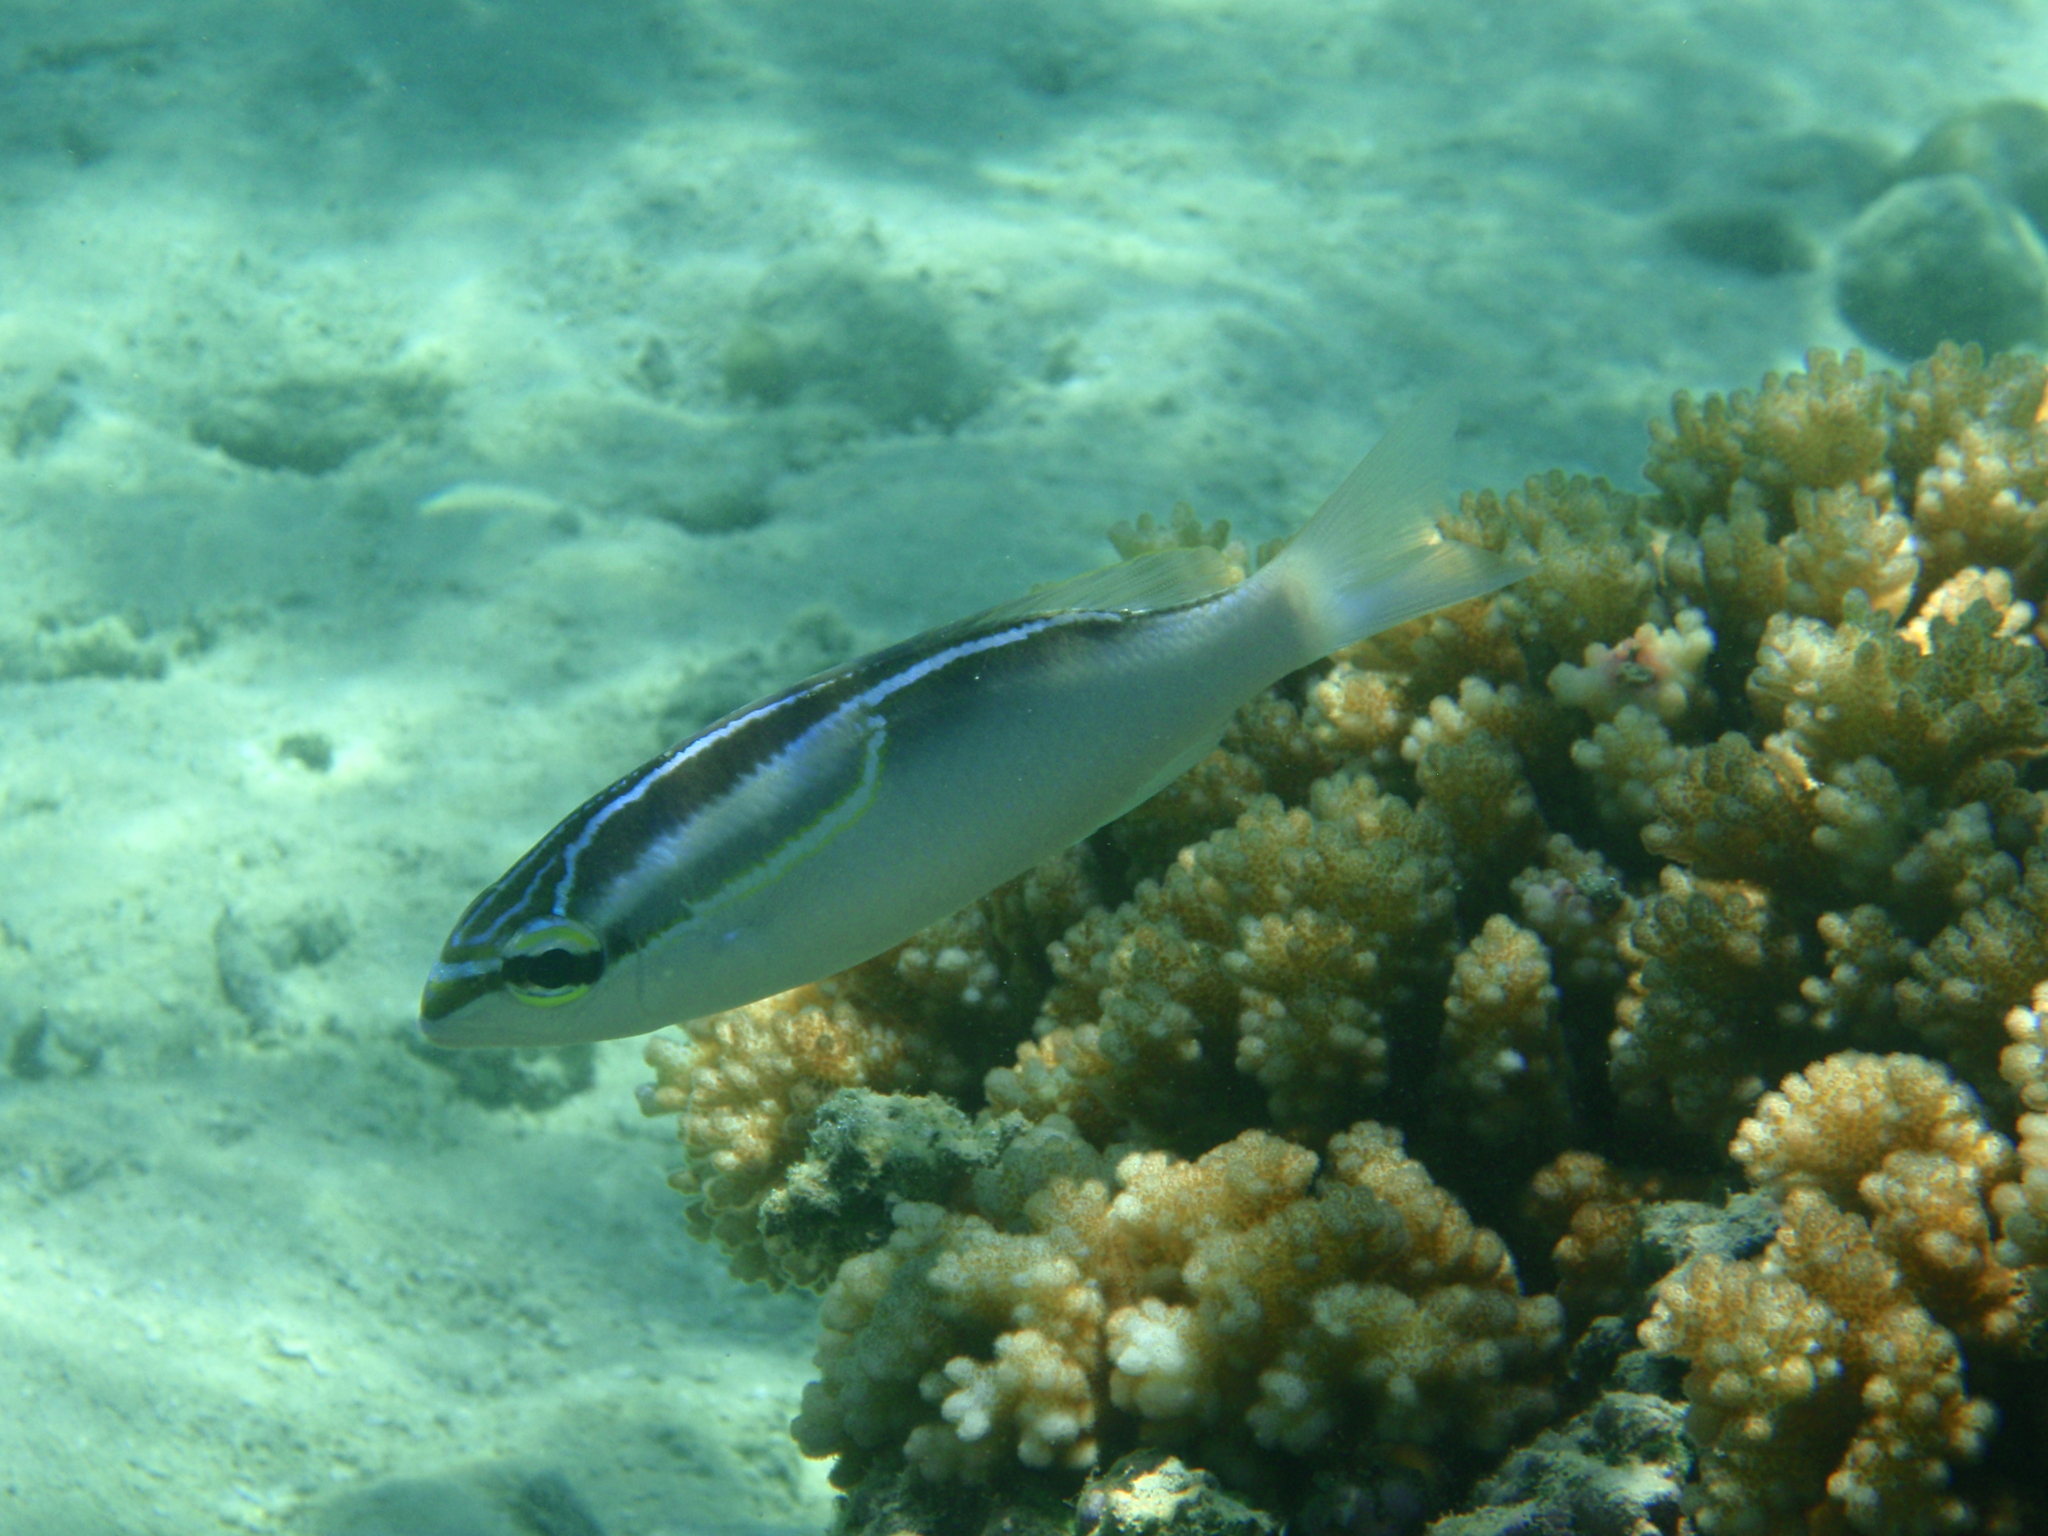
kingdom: Animalia
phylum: Chordata
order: Perciformes
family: Nemipteridae
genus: Scolopsis
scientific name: Scolopsis trilineata
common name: Three-lined monocle bream
